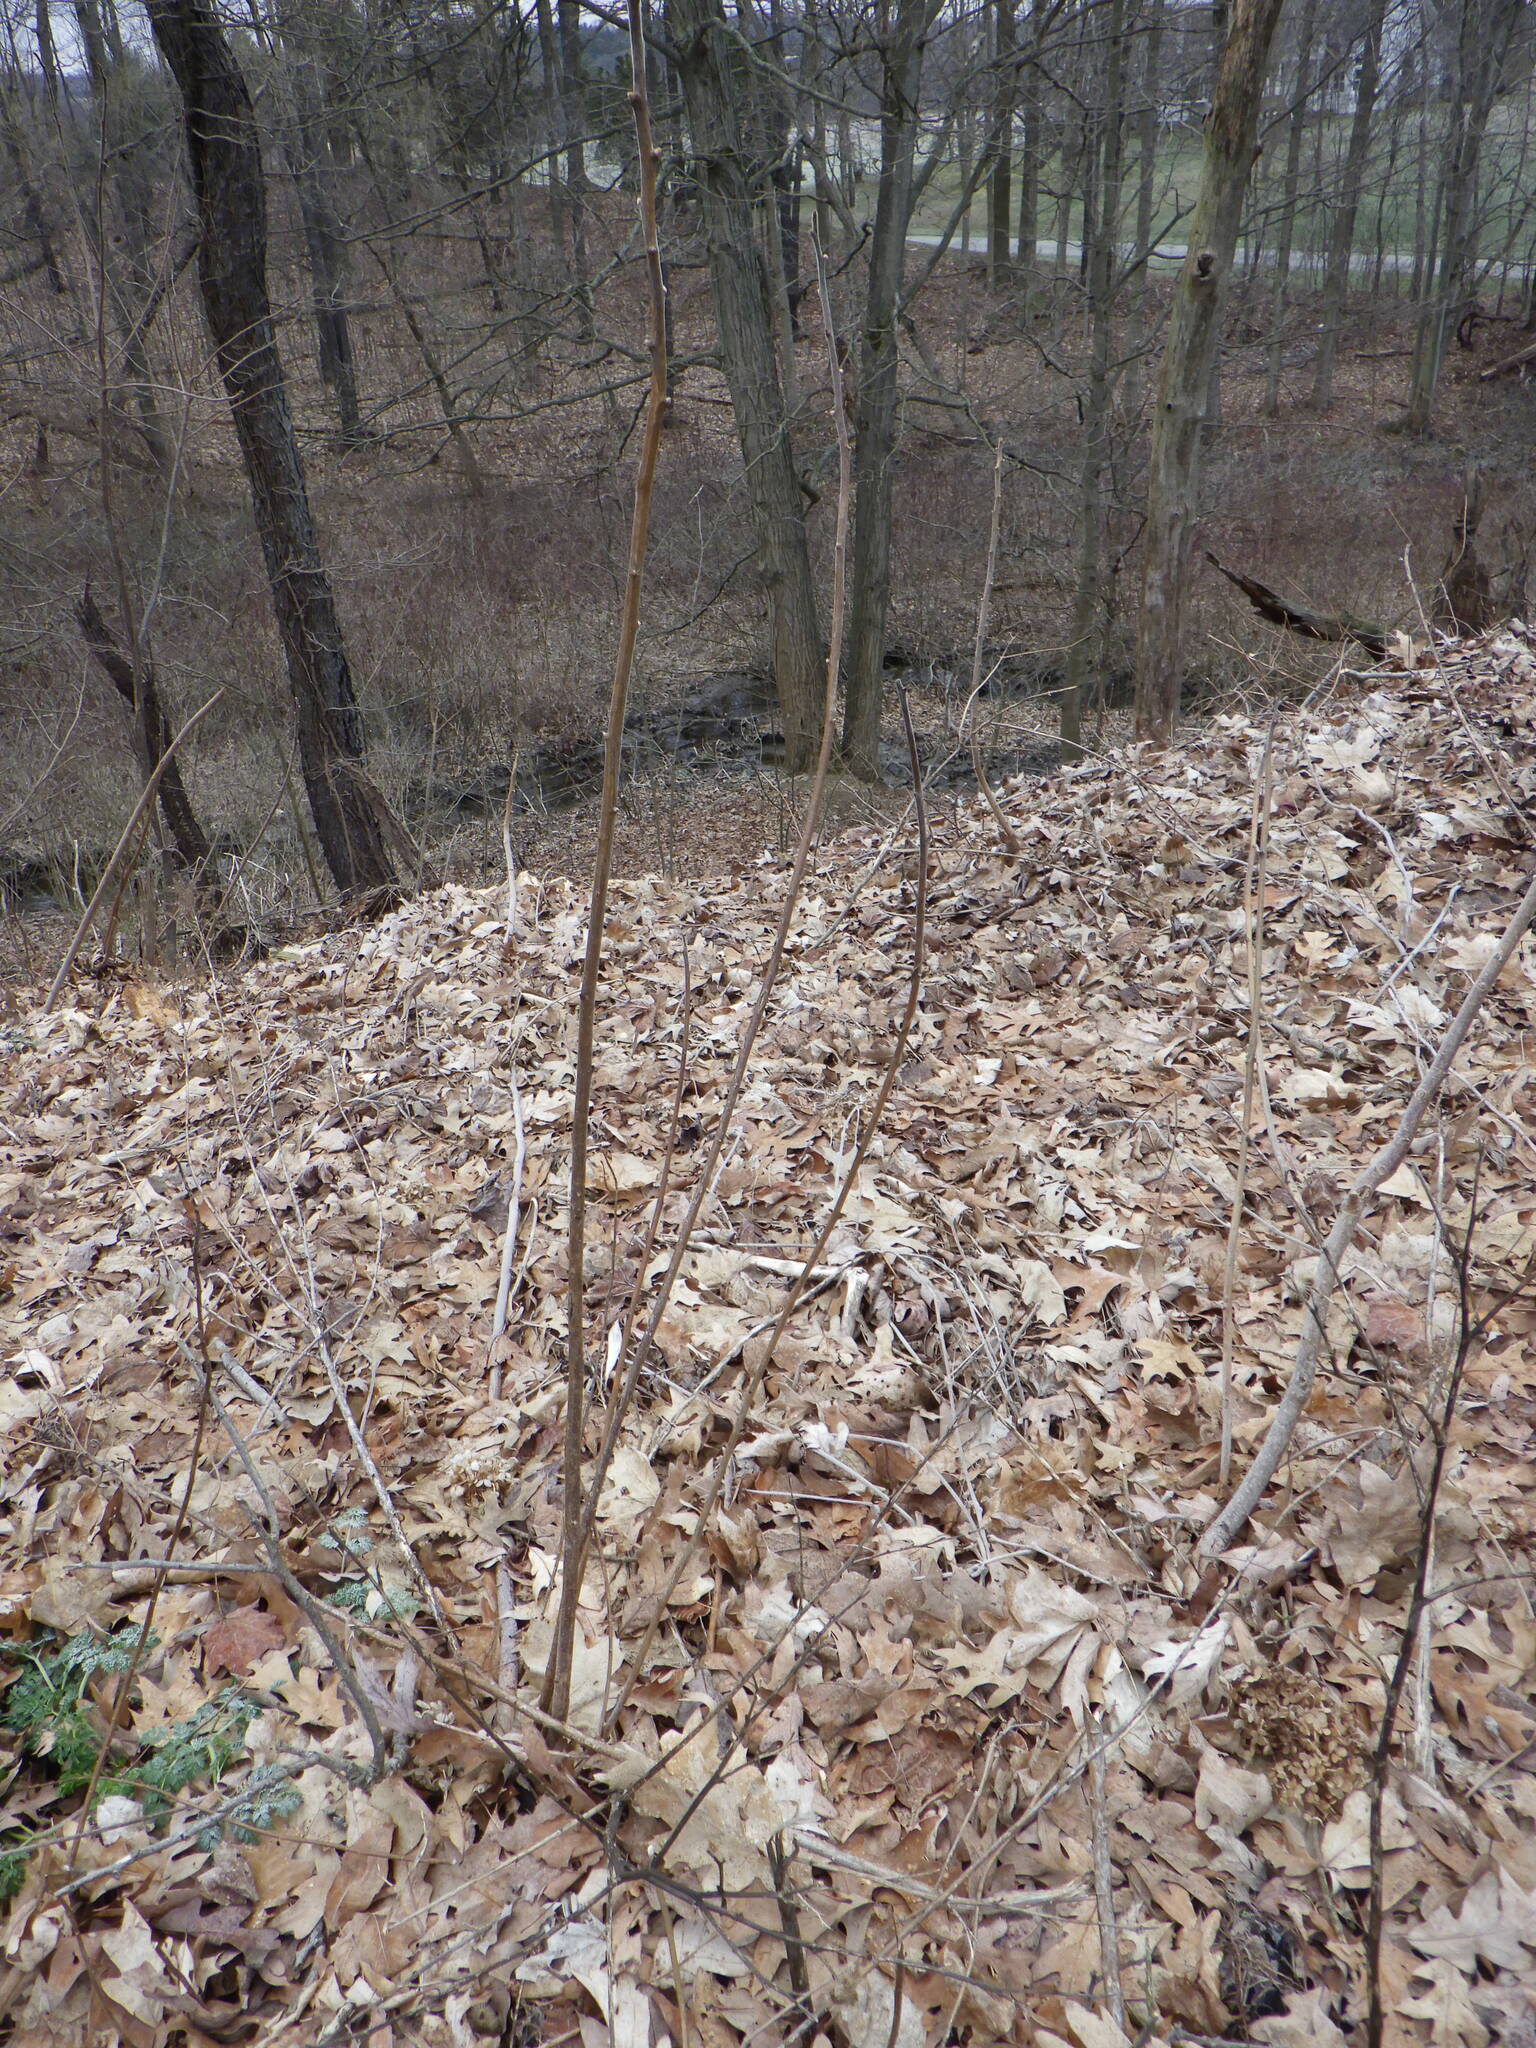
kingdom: Plantae
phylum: Tracheophyta
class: Magnoliopsida
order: Sapindales
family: Anacardiaceae
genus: Rhus
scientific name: Rhus typhina
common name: Staghorn sumac
